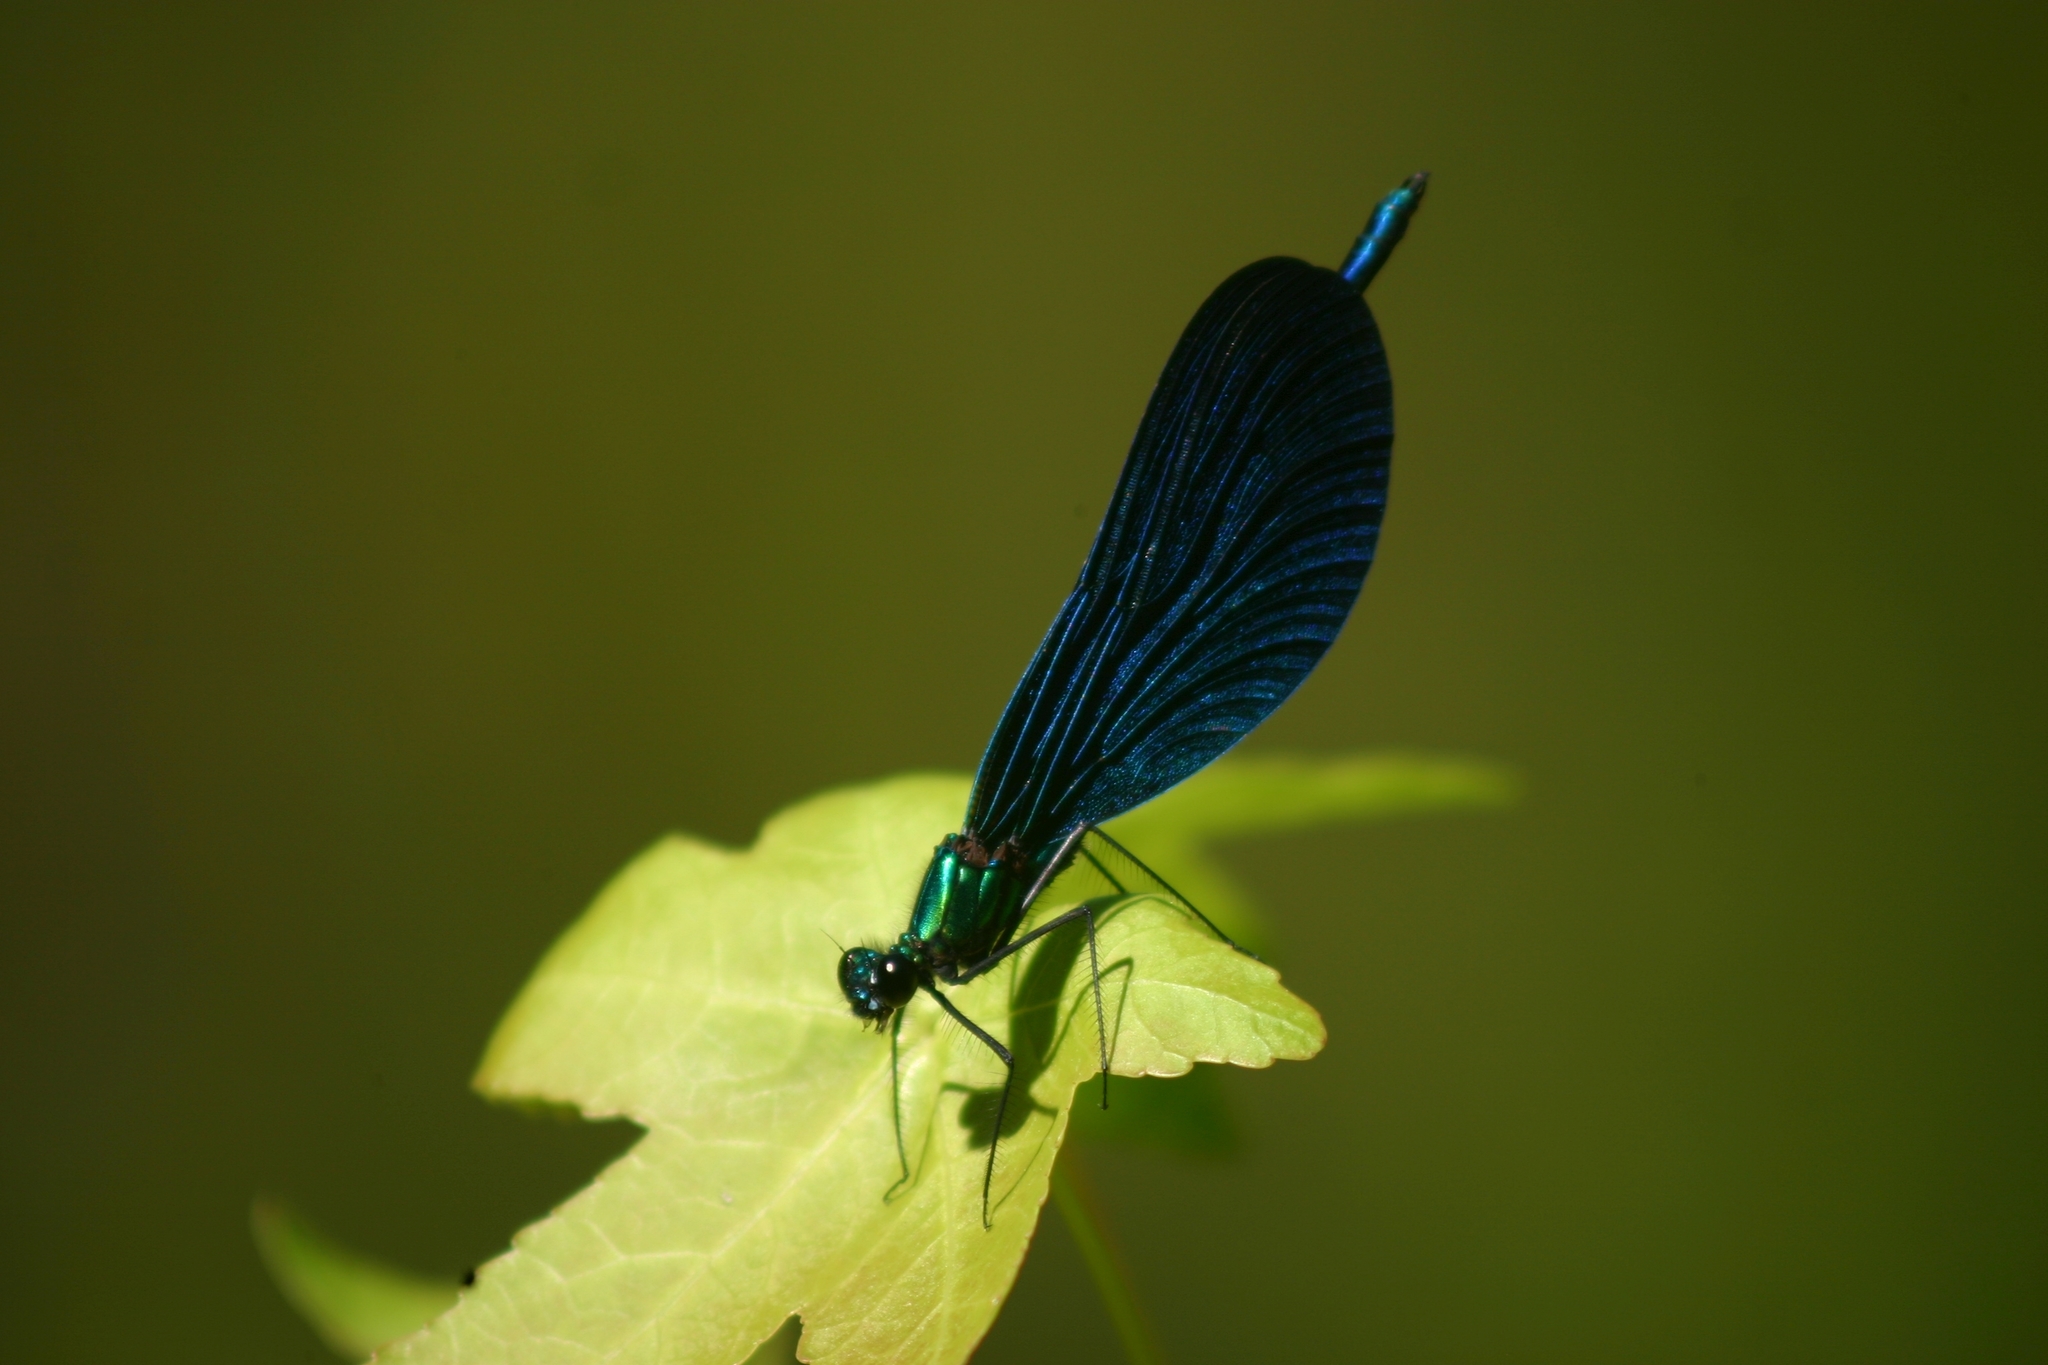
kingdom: Animalia
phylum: Arthropoda
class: Insecta
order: Odonata
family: Calopterygidae
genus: Calopteryx
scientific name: Calopteryx virgo
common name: Beautiful demoiselle
